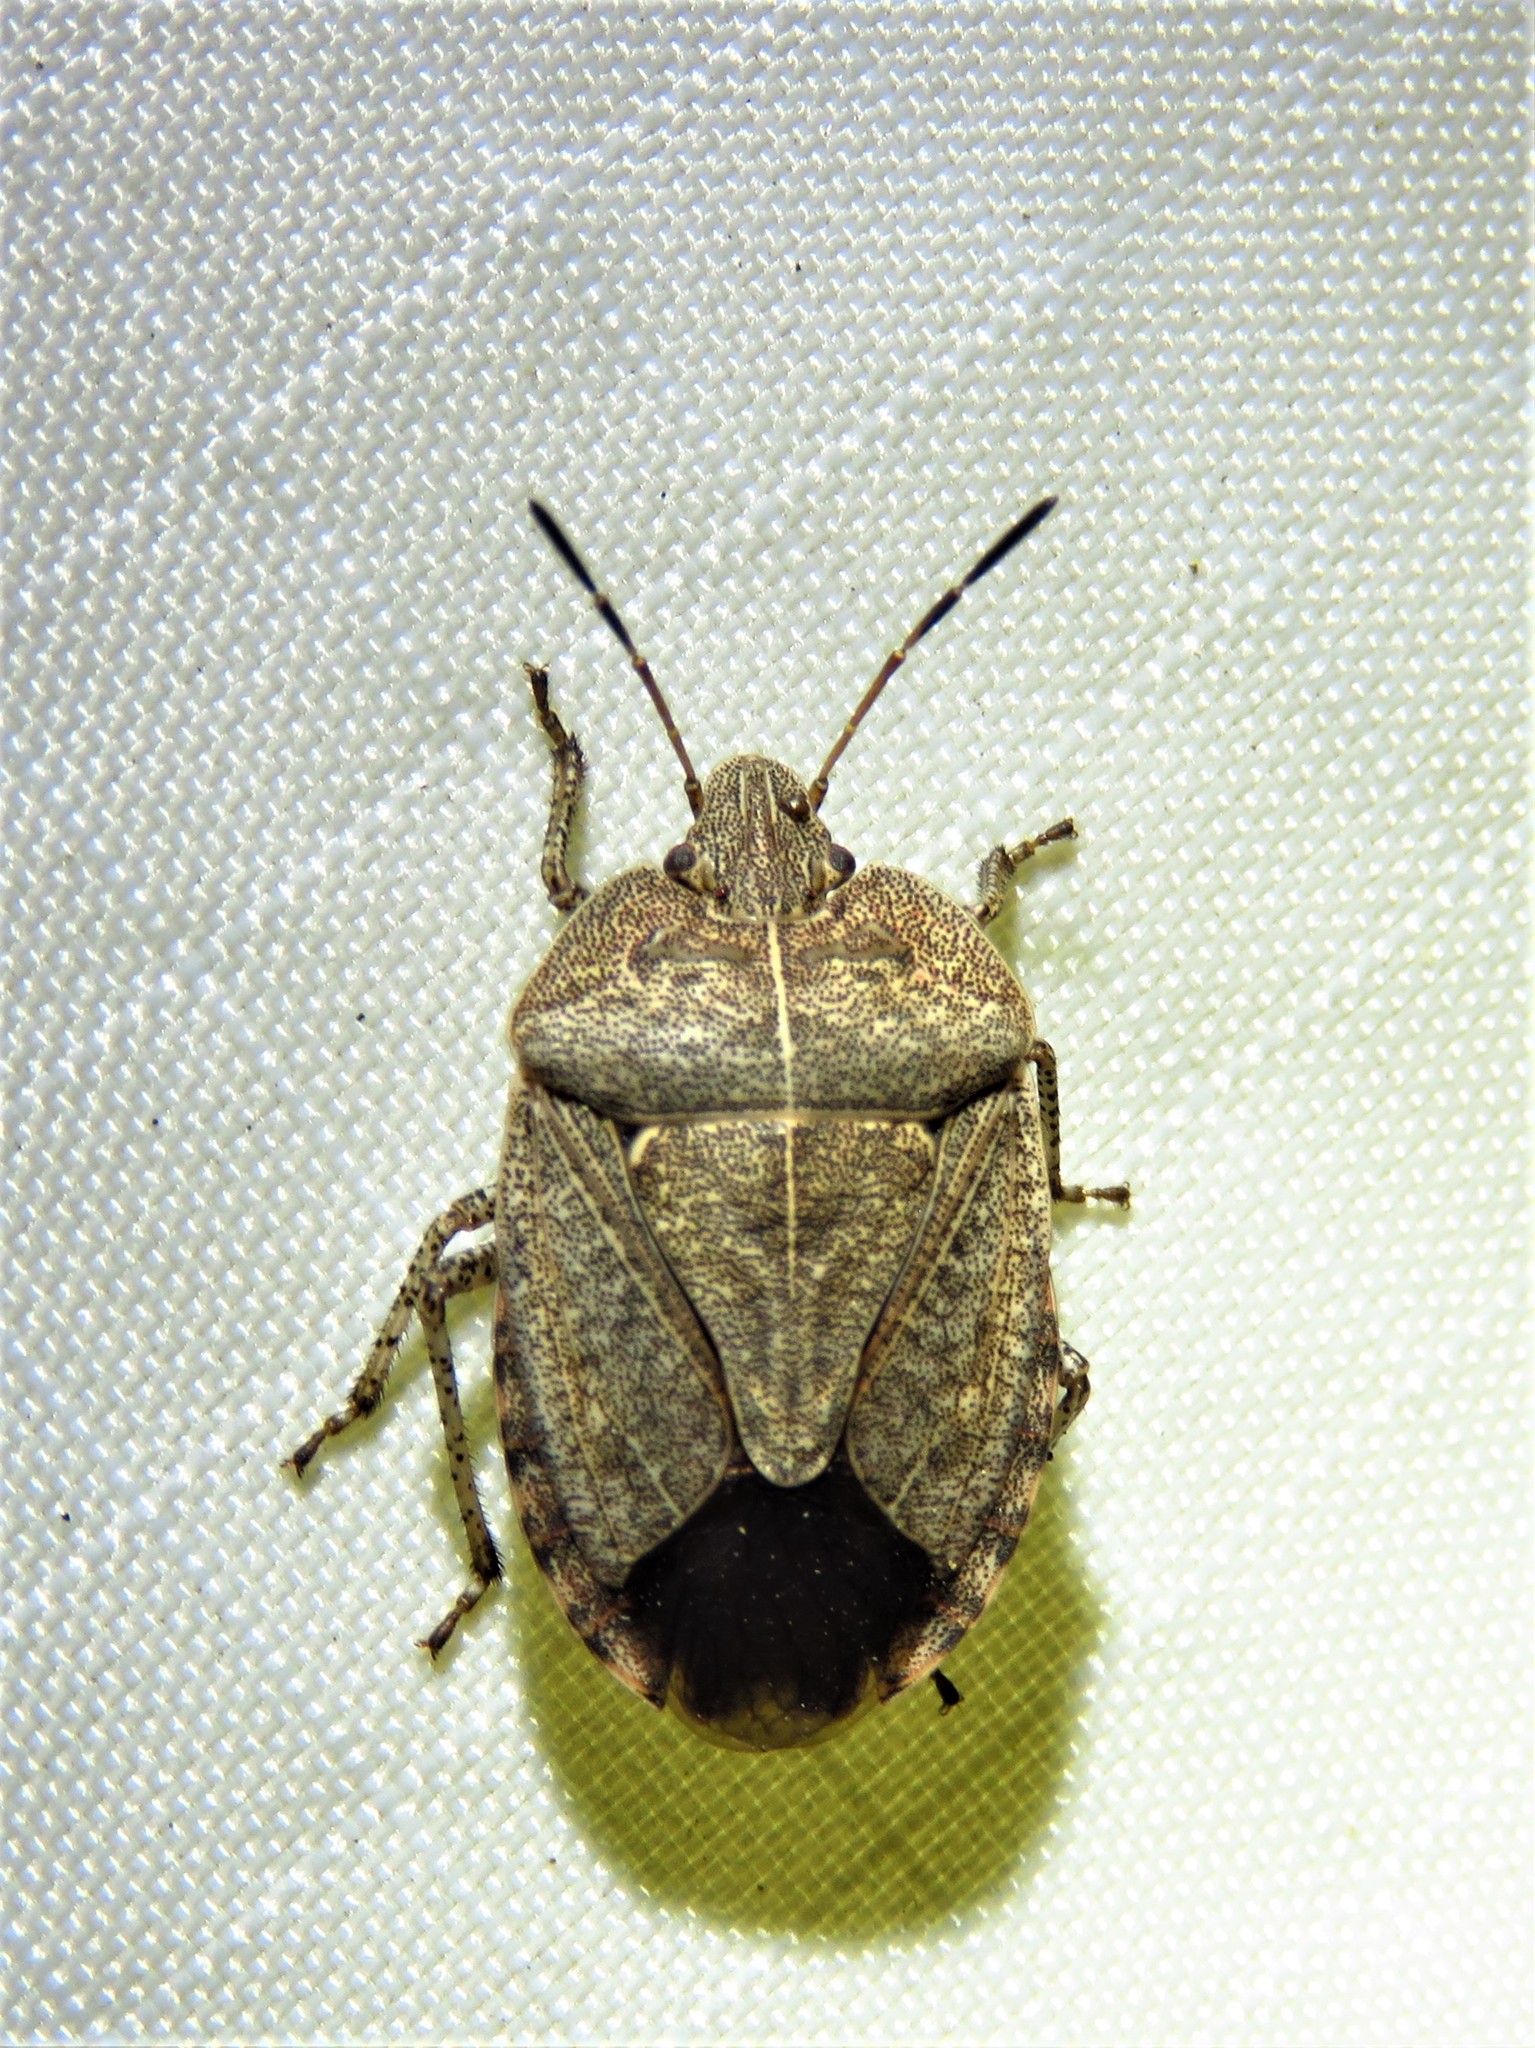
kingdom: Animalia
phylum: Arthropoda
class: Insecta
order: Hemiptera
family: Pentatomidae
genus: Menecles
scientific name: Menecles insertus
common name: Elf shoe stink bug
